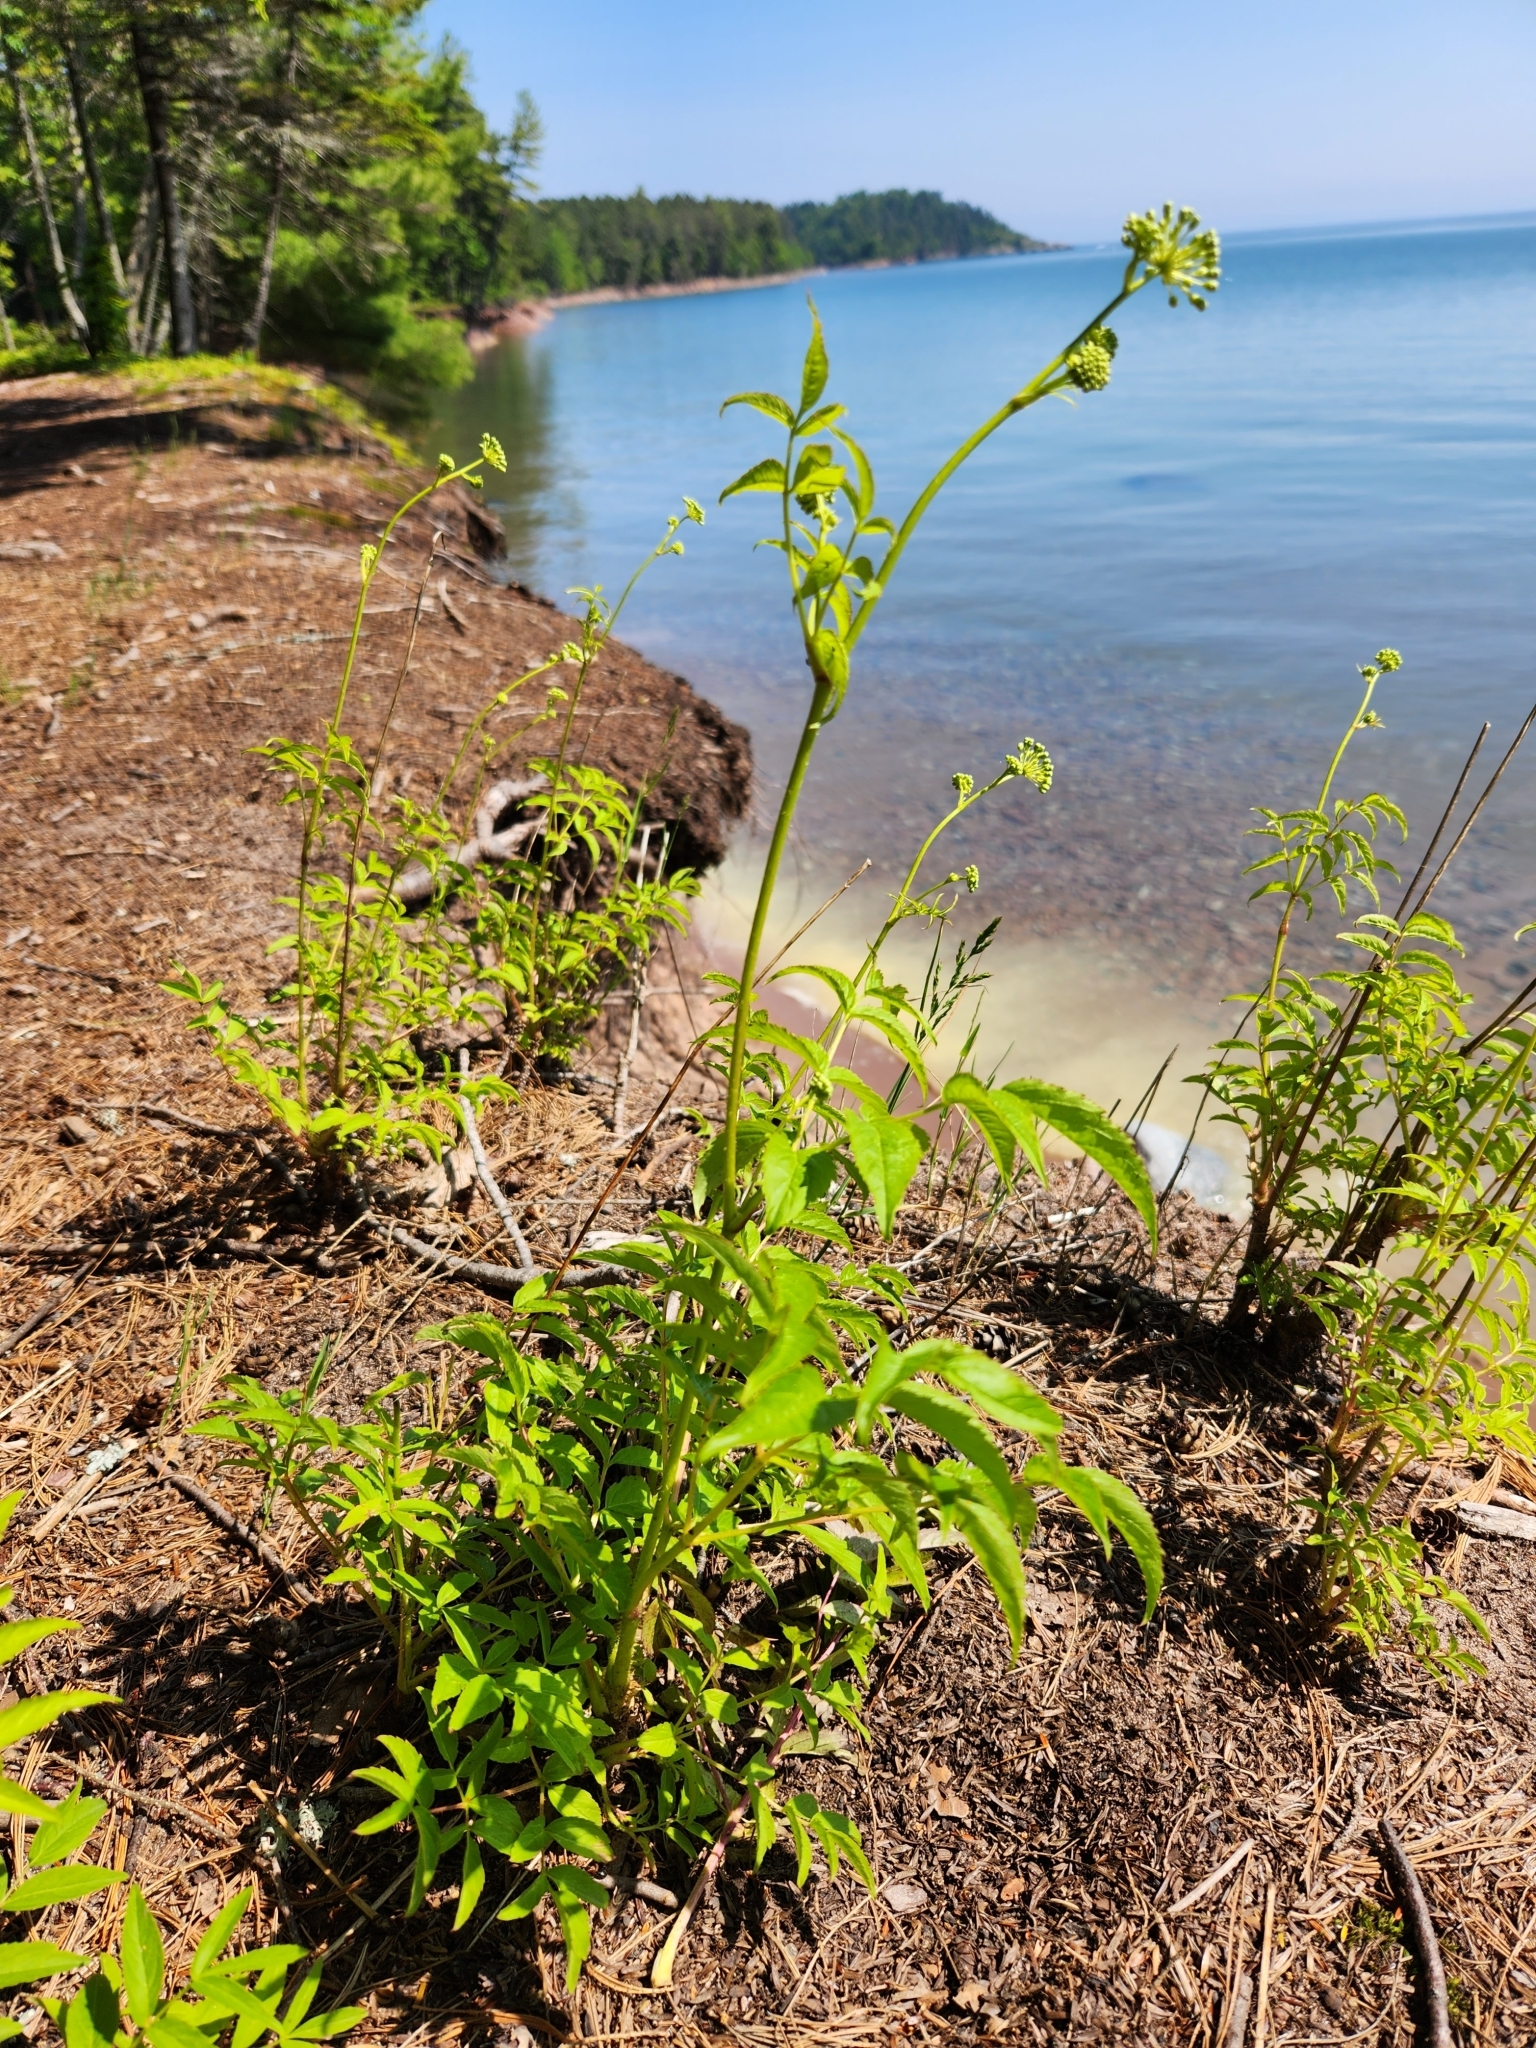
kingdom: Plantae
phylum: Tracheophyta
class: Magnoliopsida
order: Apiales
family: Araliaceae
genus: Aralia
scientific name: Aralia hispida
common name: Bristly sarsaparilla
